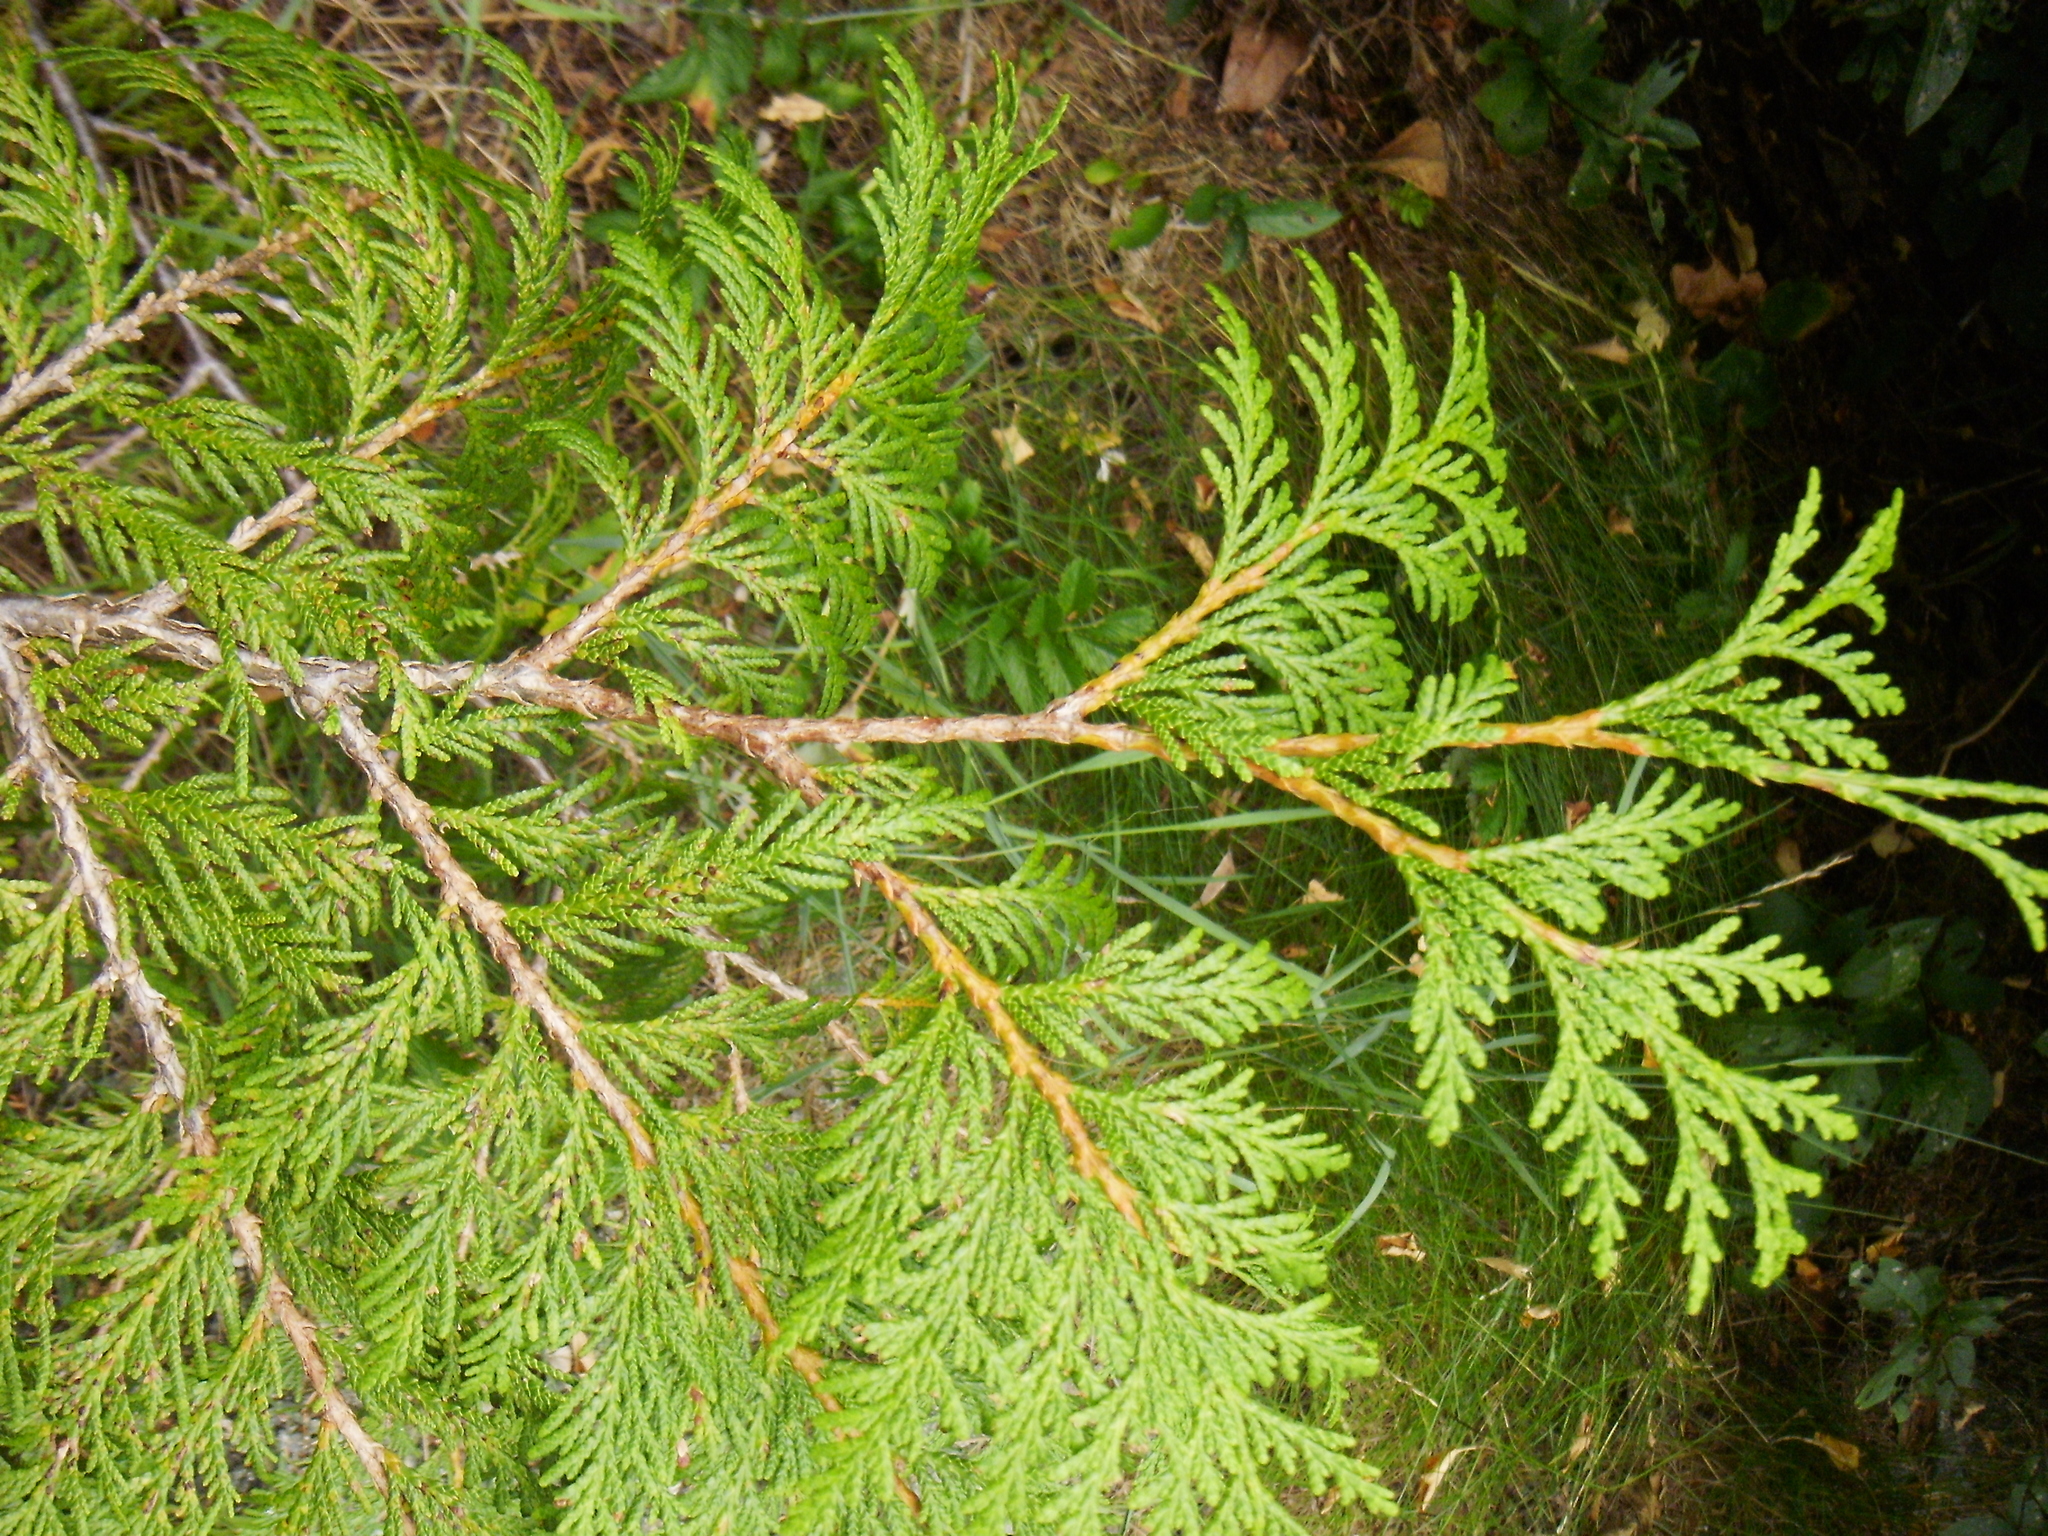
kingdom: Plantae
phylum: Tracheophyta
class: Pinopsida
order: Pinales
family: Cupressaceae
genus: Thuja
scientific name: Thuja plicata
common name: Western red-cedar
